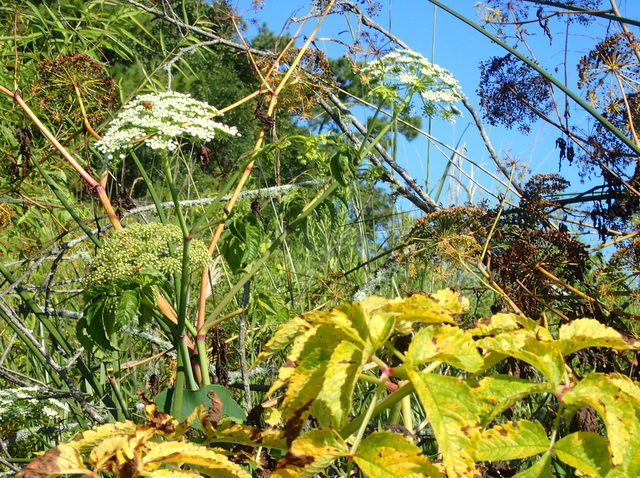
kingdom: Plantae
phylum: Tracheophyta
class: Magnoliopsida
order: Apiales
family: Apiaceae
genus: Cicuta
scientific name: Cicuta maculata
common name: Spotted cowbane
